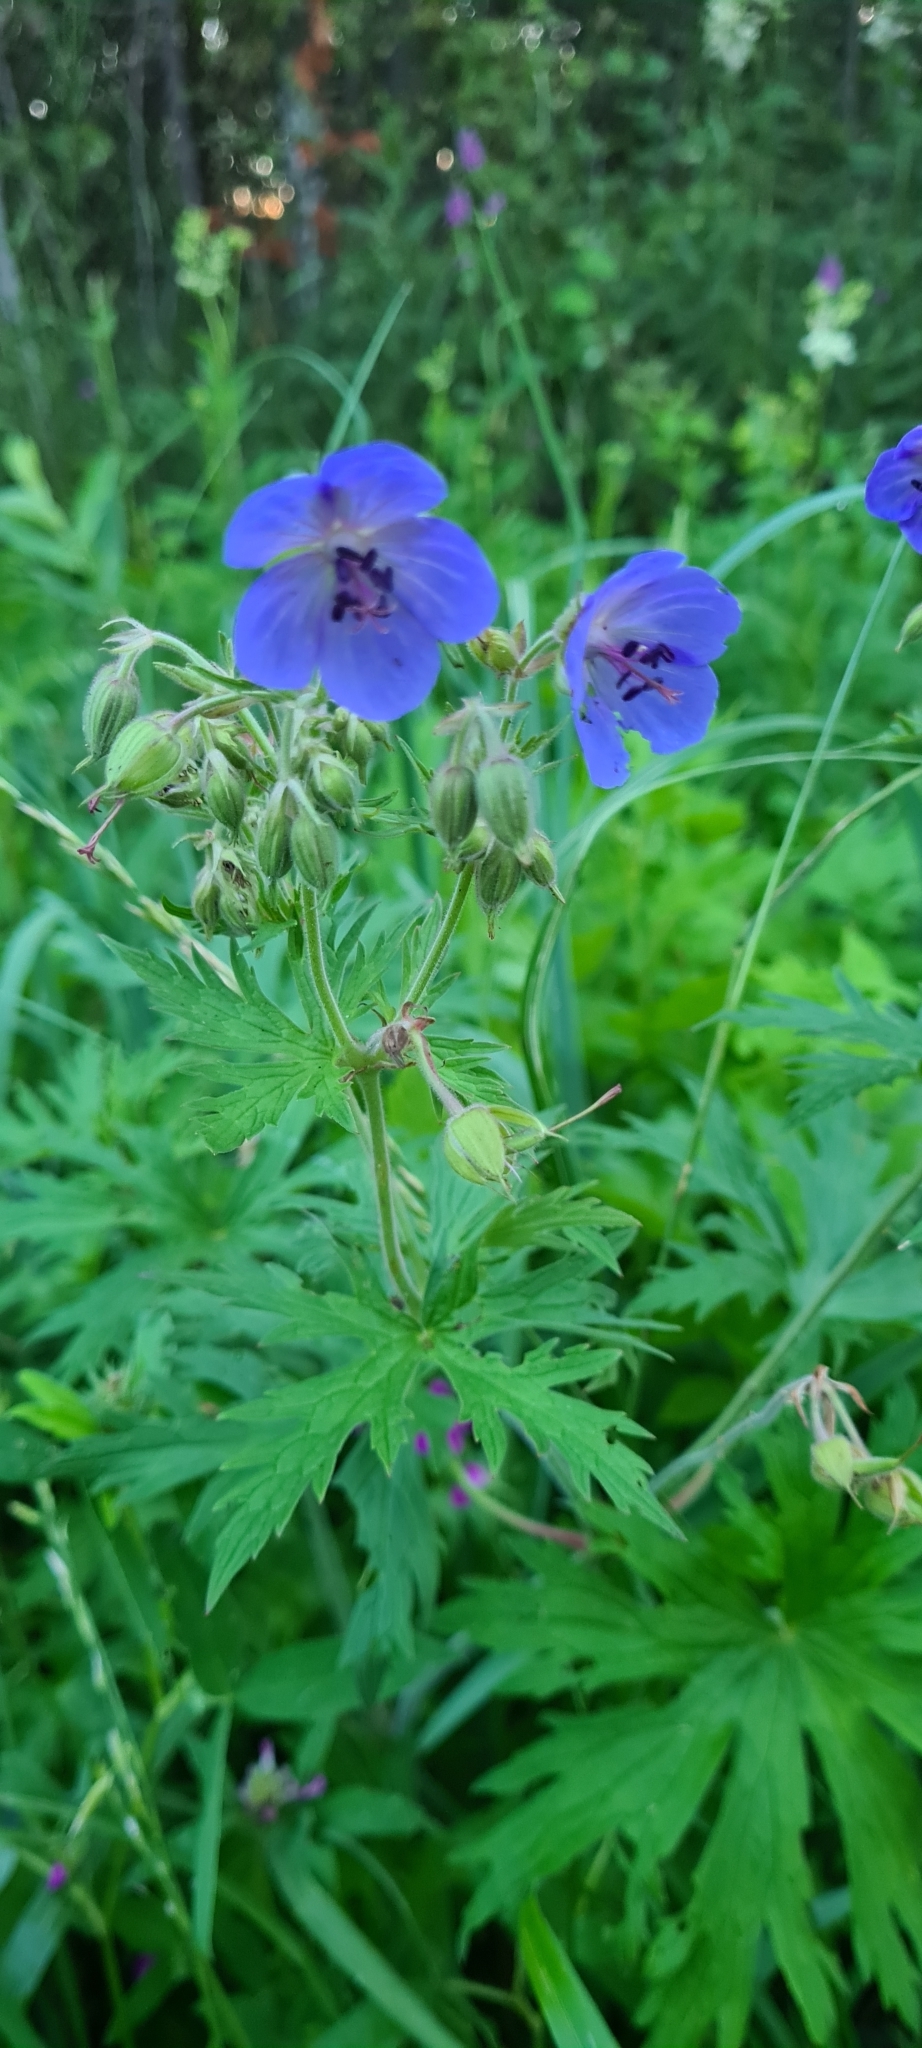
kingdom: Plantae
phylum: Tracheophyta
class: Magnoliopsida
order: Geraniales
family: Geraniaceae
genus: Geranium
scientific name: Geranium pratense
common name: Meadow crane's-bill
